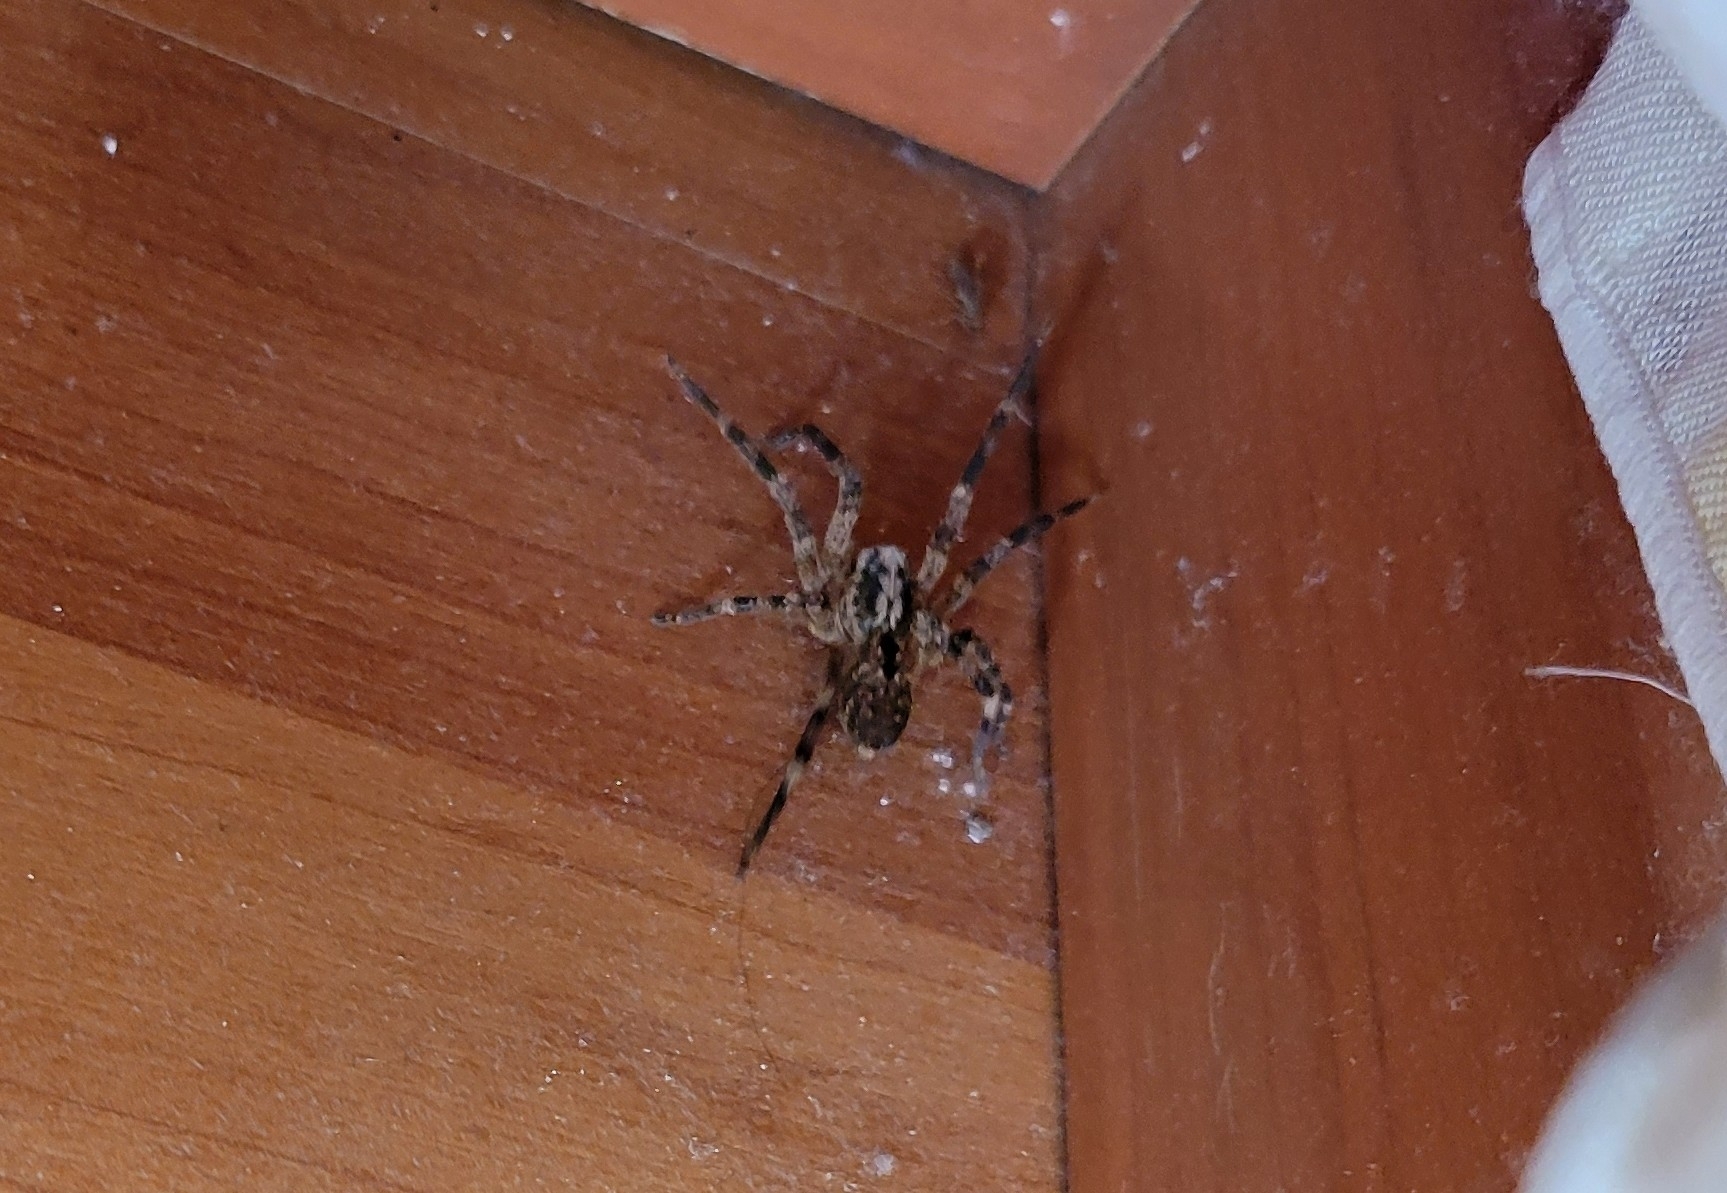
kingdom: Animalia
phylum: Arthropoda
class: Arachnida
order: Araneae
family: Zoropsidae
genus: Zoropsis
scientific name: Zoropsis spinimana
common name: Zoropsid spider
